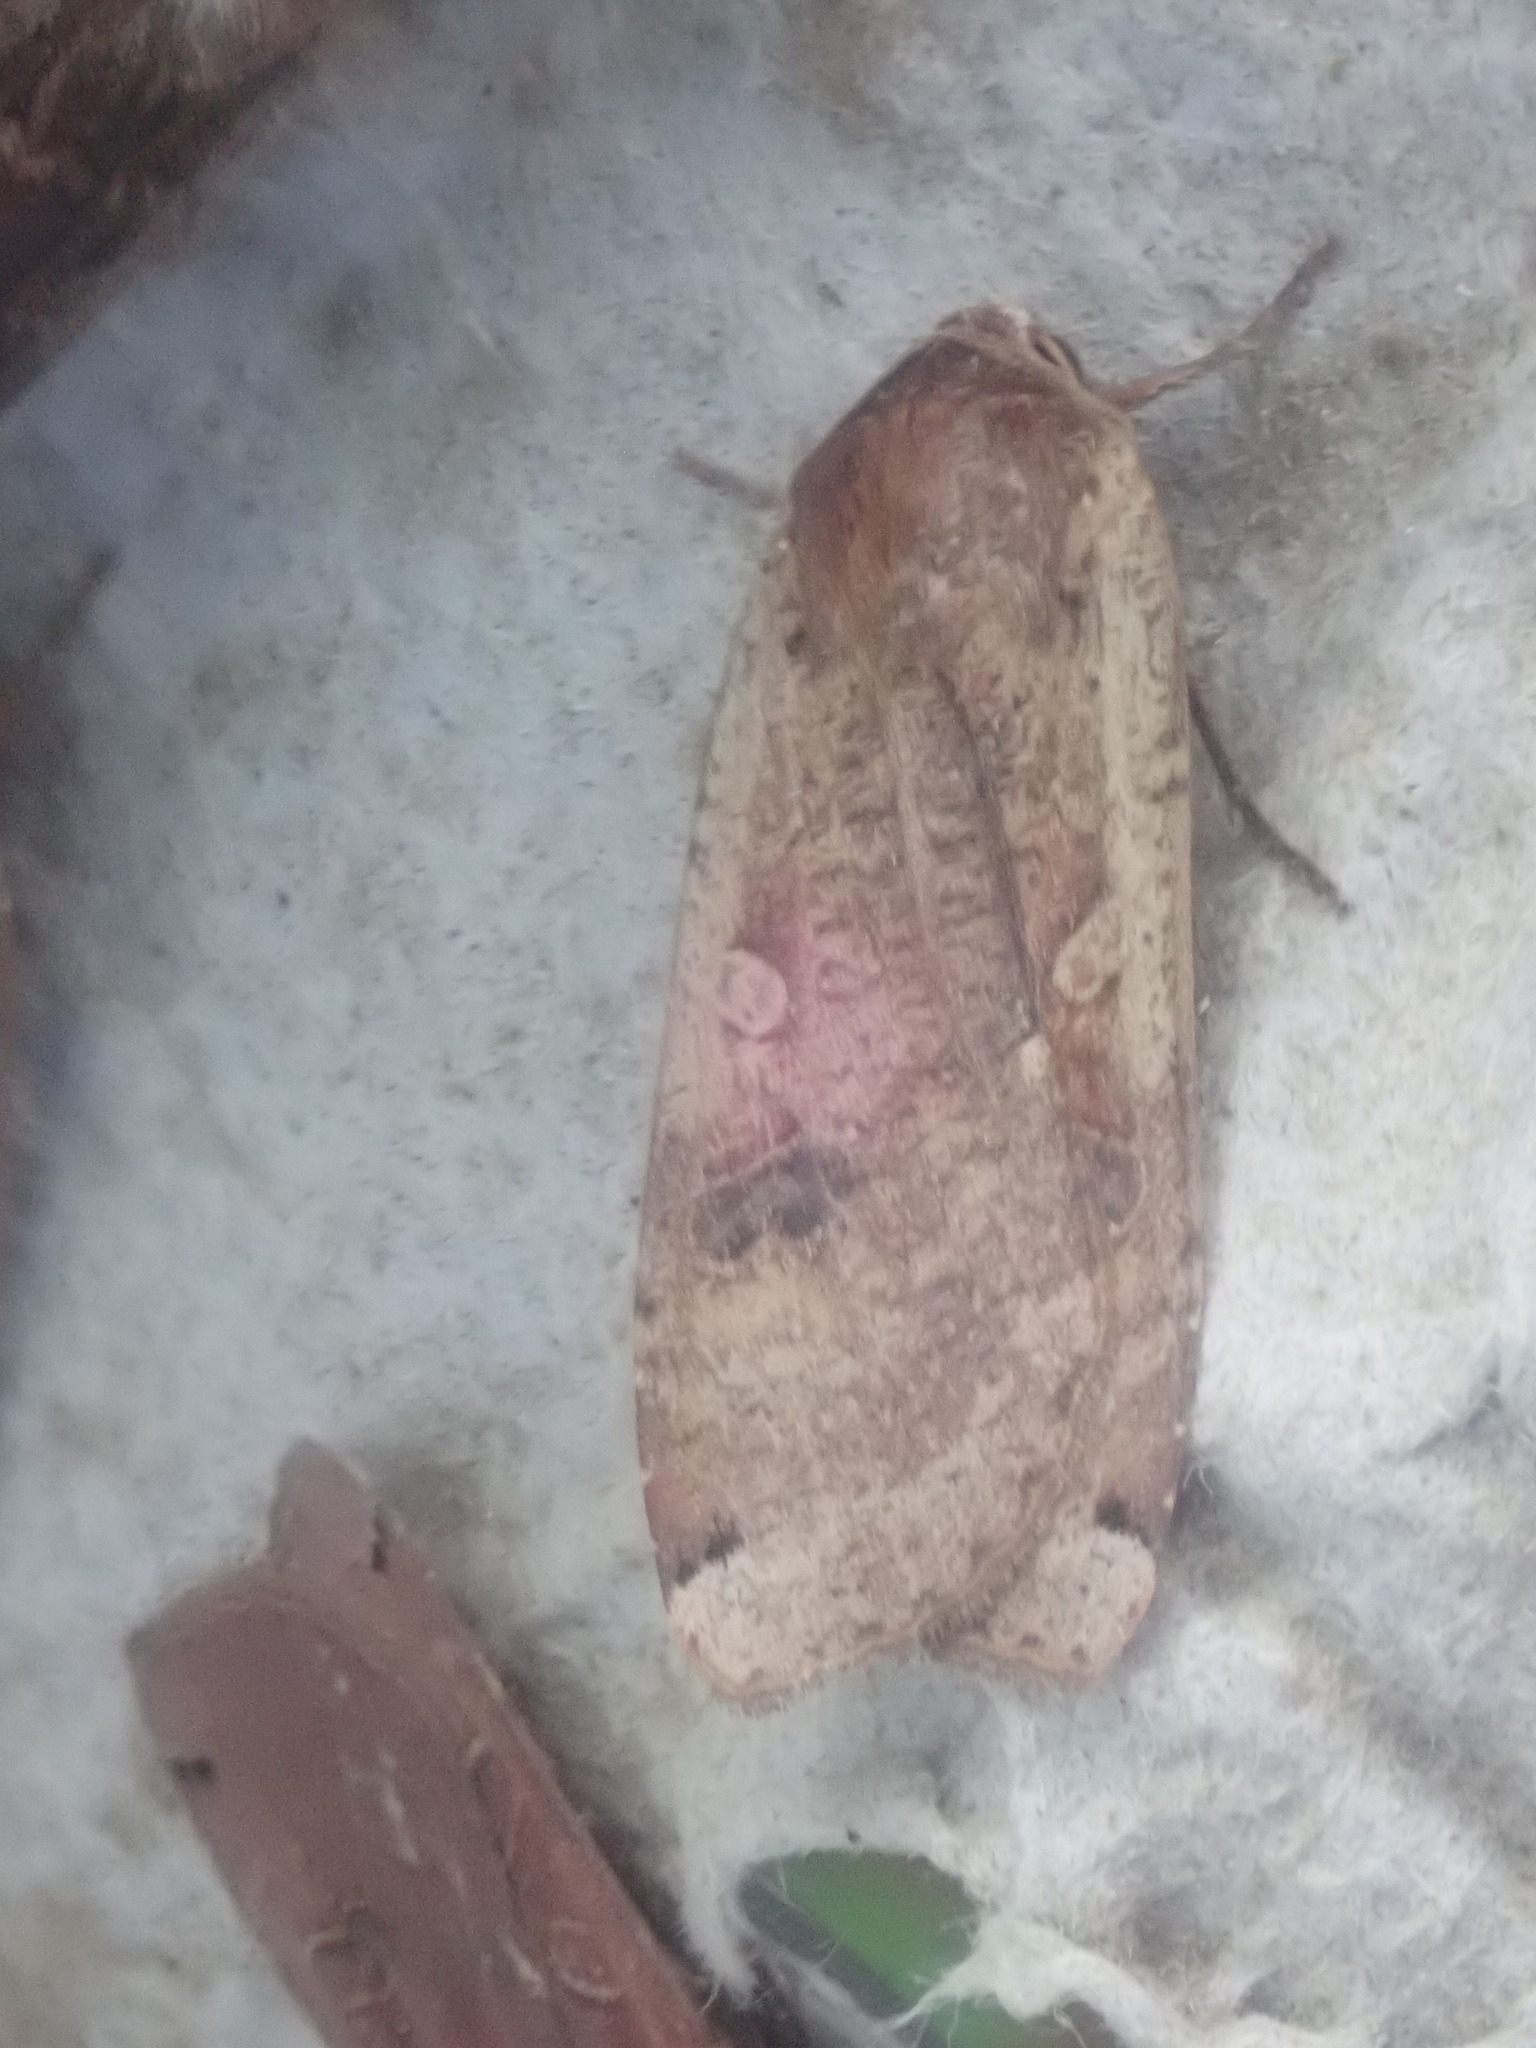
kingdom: Animalia
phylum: Arthropoda
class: Insecta
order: Lepidoptera
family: Noctuidae
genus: Noctua
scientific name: Noctua pronuba
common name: Large yellow underwing
